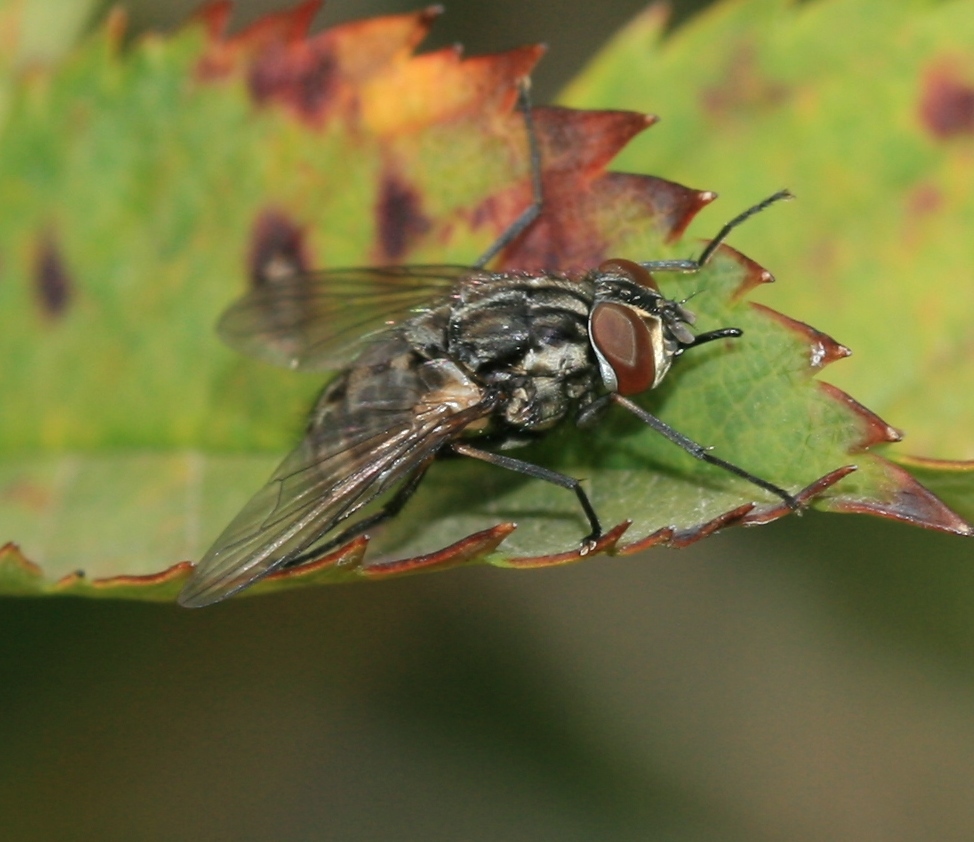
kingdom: Animalia
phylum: Arthropoda
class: Insecta
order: Diptera
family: Muscidae
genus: Stomoxys
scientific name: Stomoxys calcitrans
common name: Stable fly
